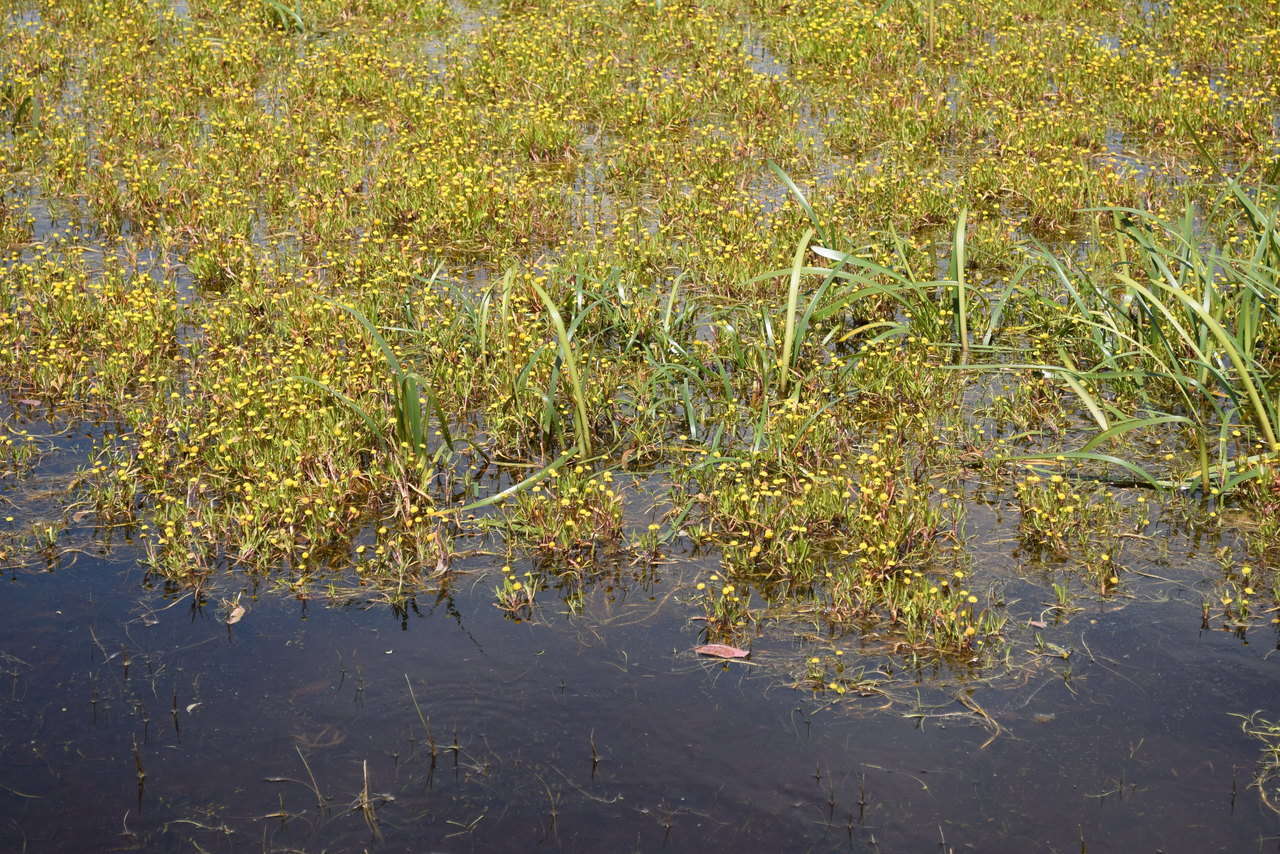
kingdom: Plantae
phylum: Tracheophyta
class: Magnoliopsida
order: Asterales
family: Asteraceae
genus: Cotula
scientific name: Cotula coronopifolia
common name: Buttonweed
